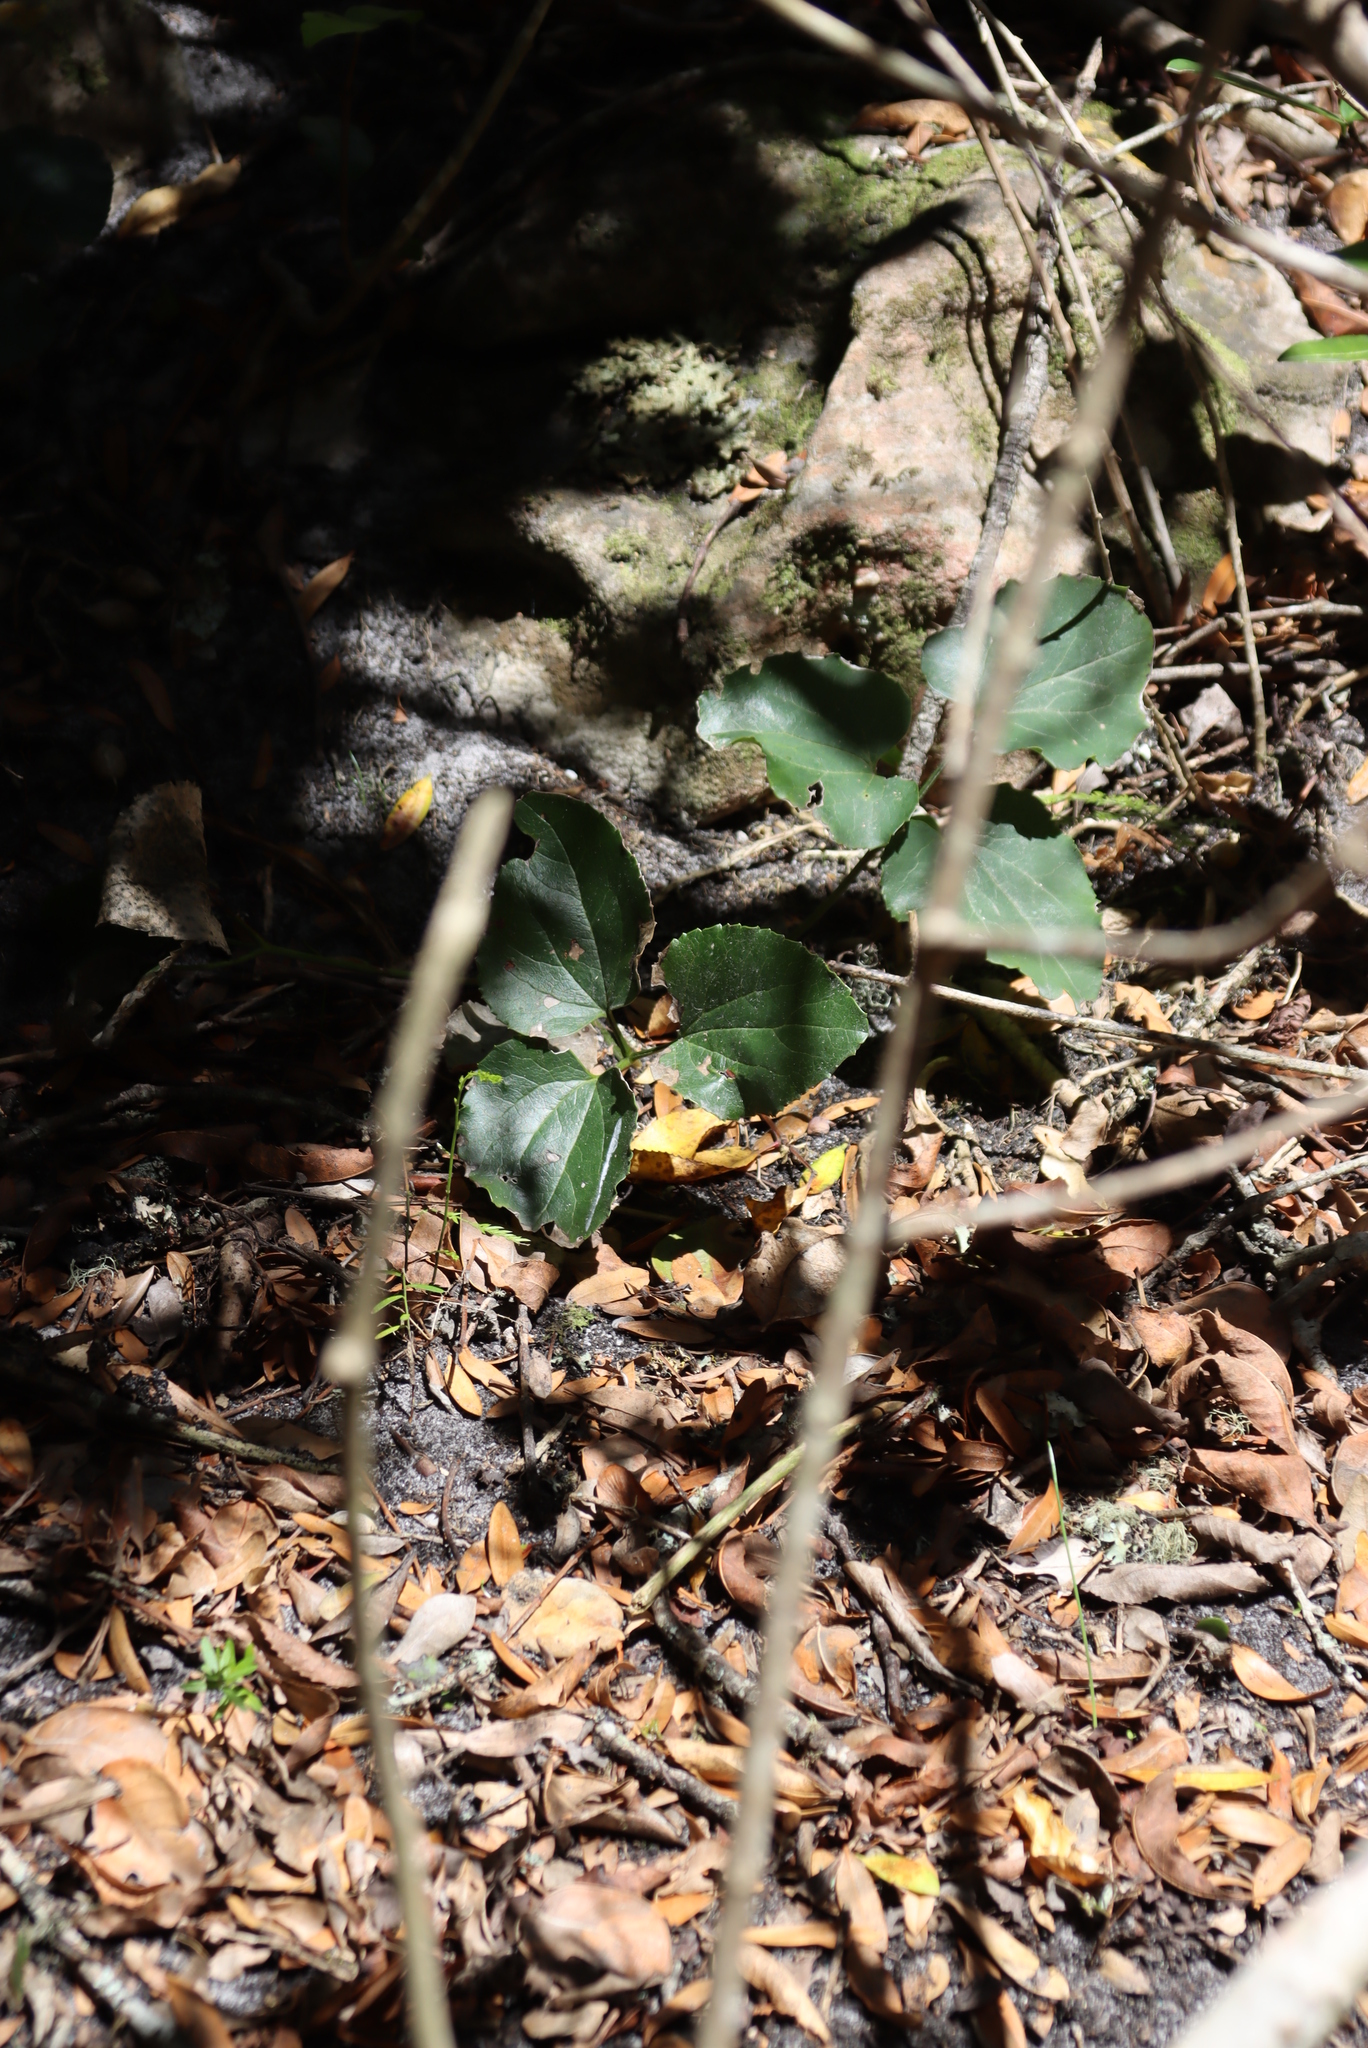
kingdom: Plantae
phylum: Tracheophyta
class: Magnoliopsida
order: Ranunculales
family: Ranunculaceae
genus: Knowltonia
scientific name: Knowltonia vesicatoria
